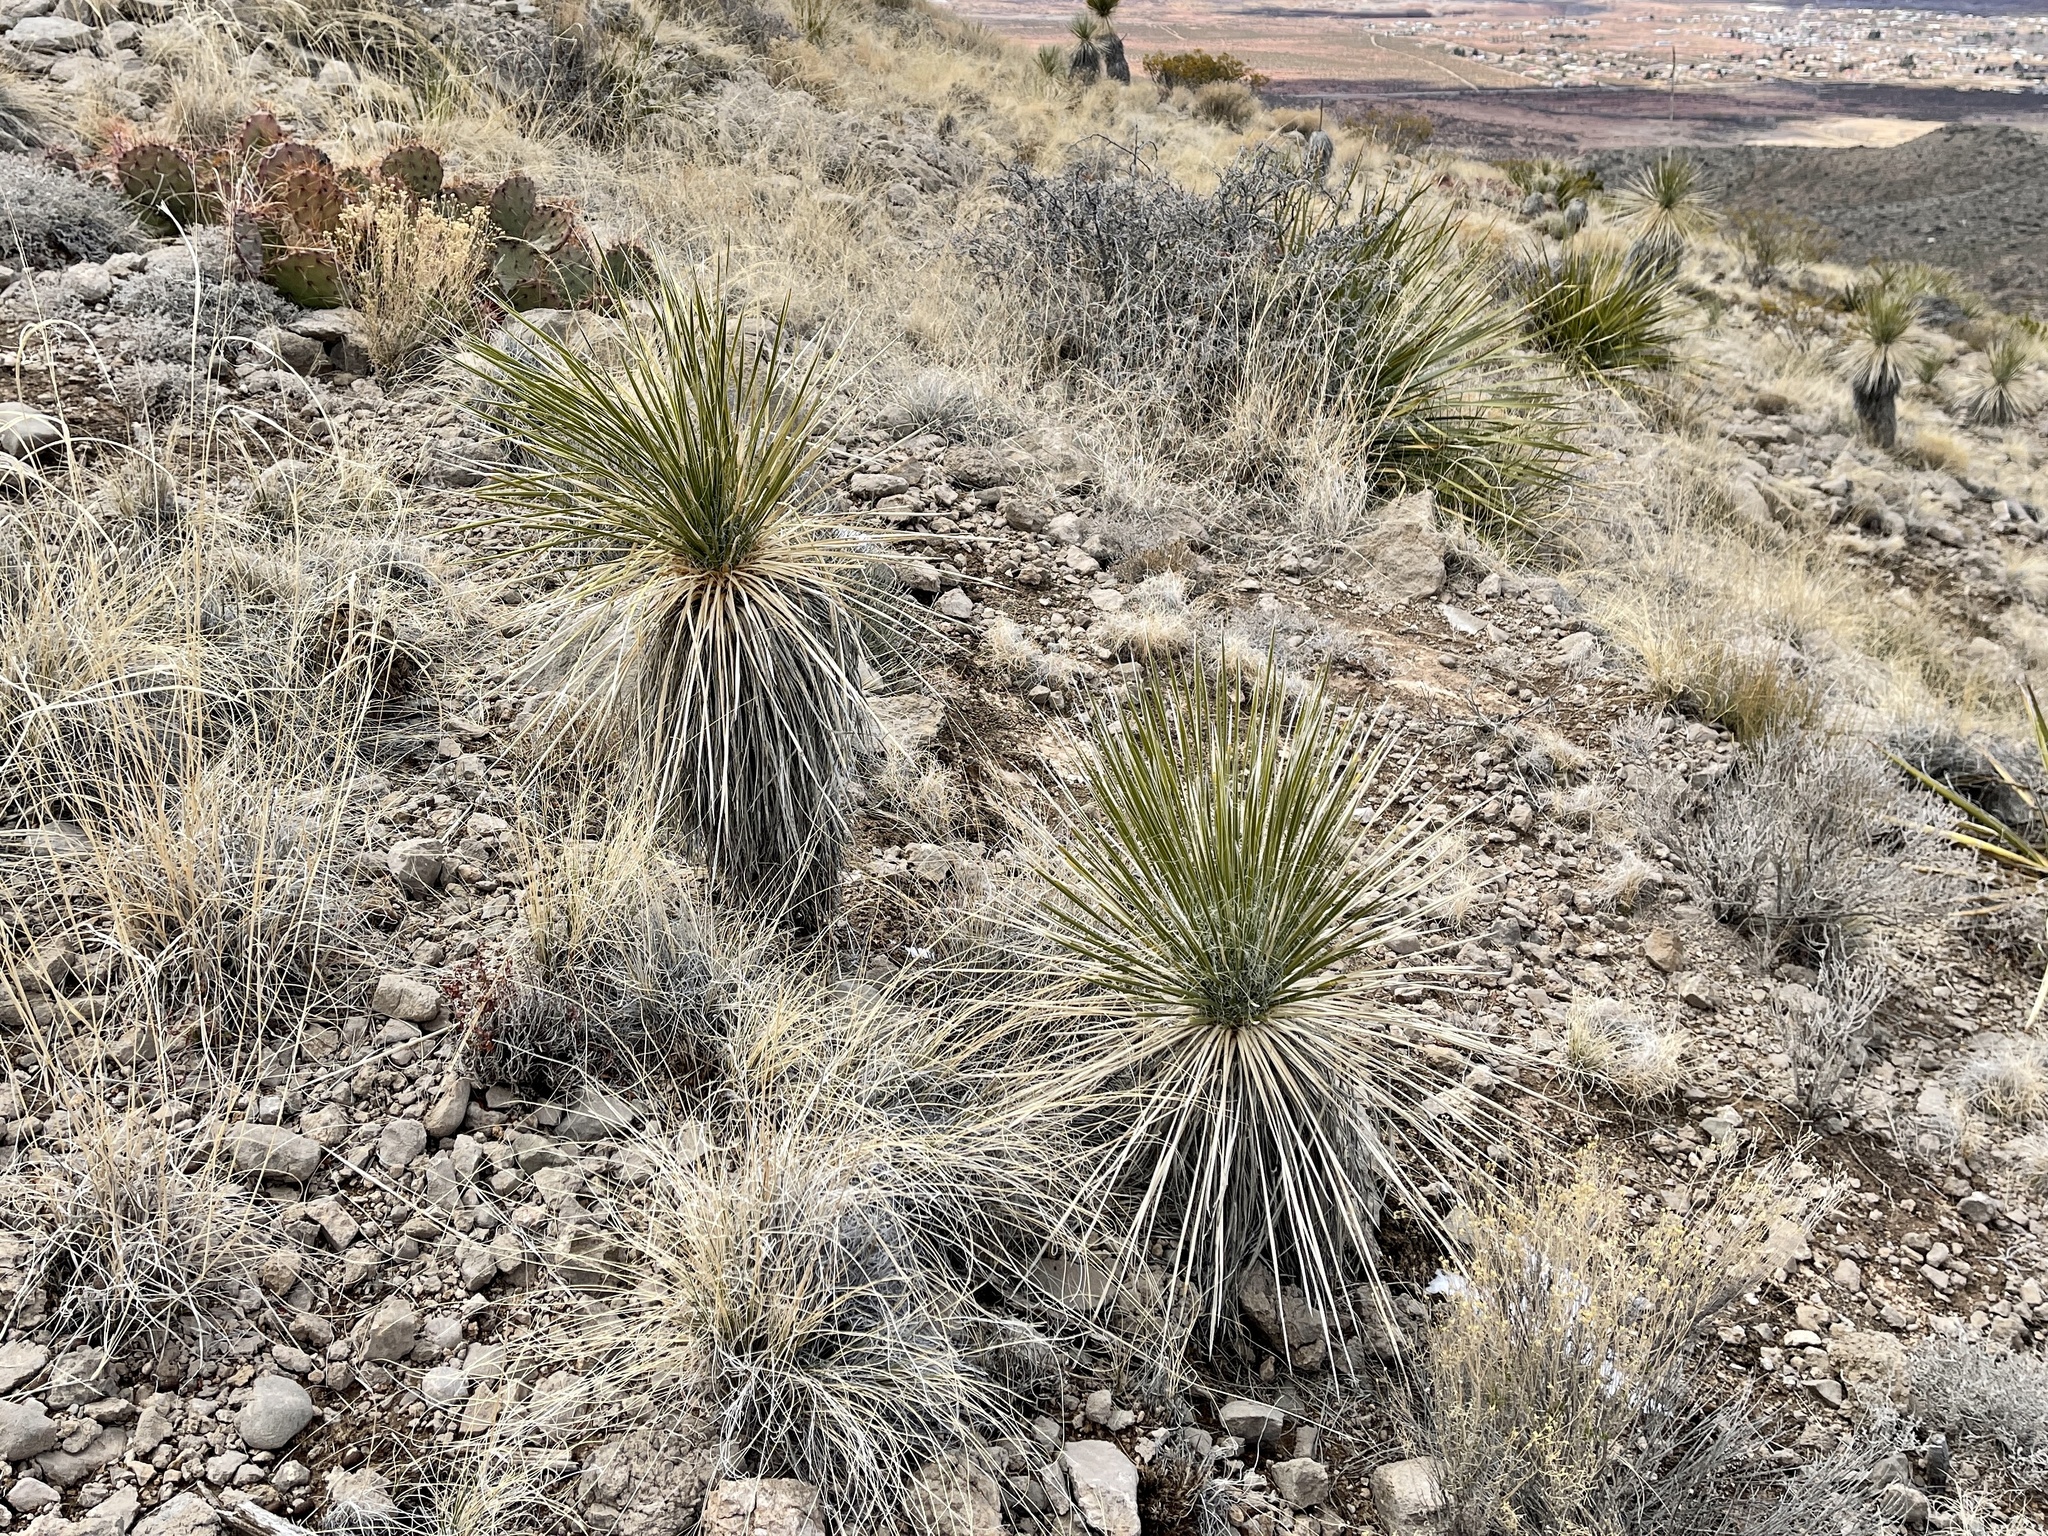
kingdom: Plantae
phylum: Tracheophyta
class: Liliopsida
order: Asparagales
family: Asparagaceae
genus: Yucca
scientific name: Yucca elata
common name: Palmella
